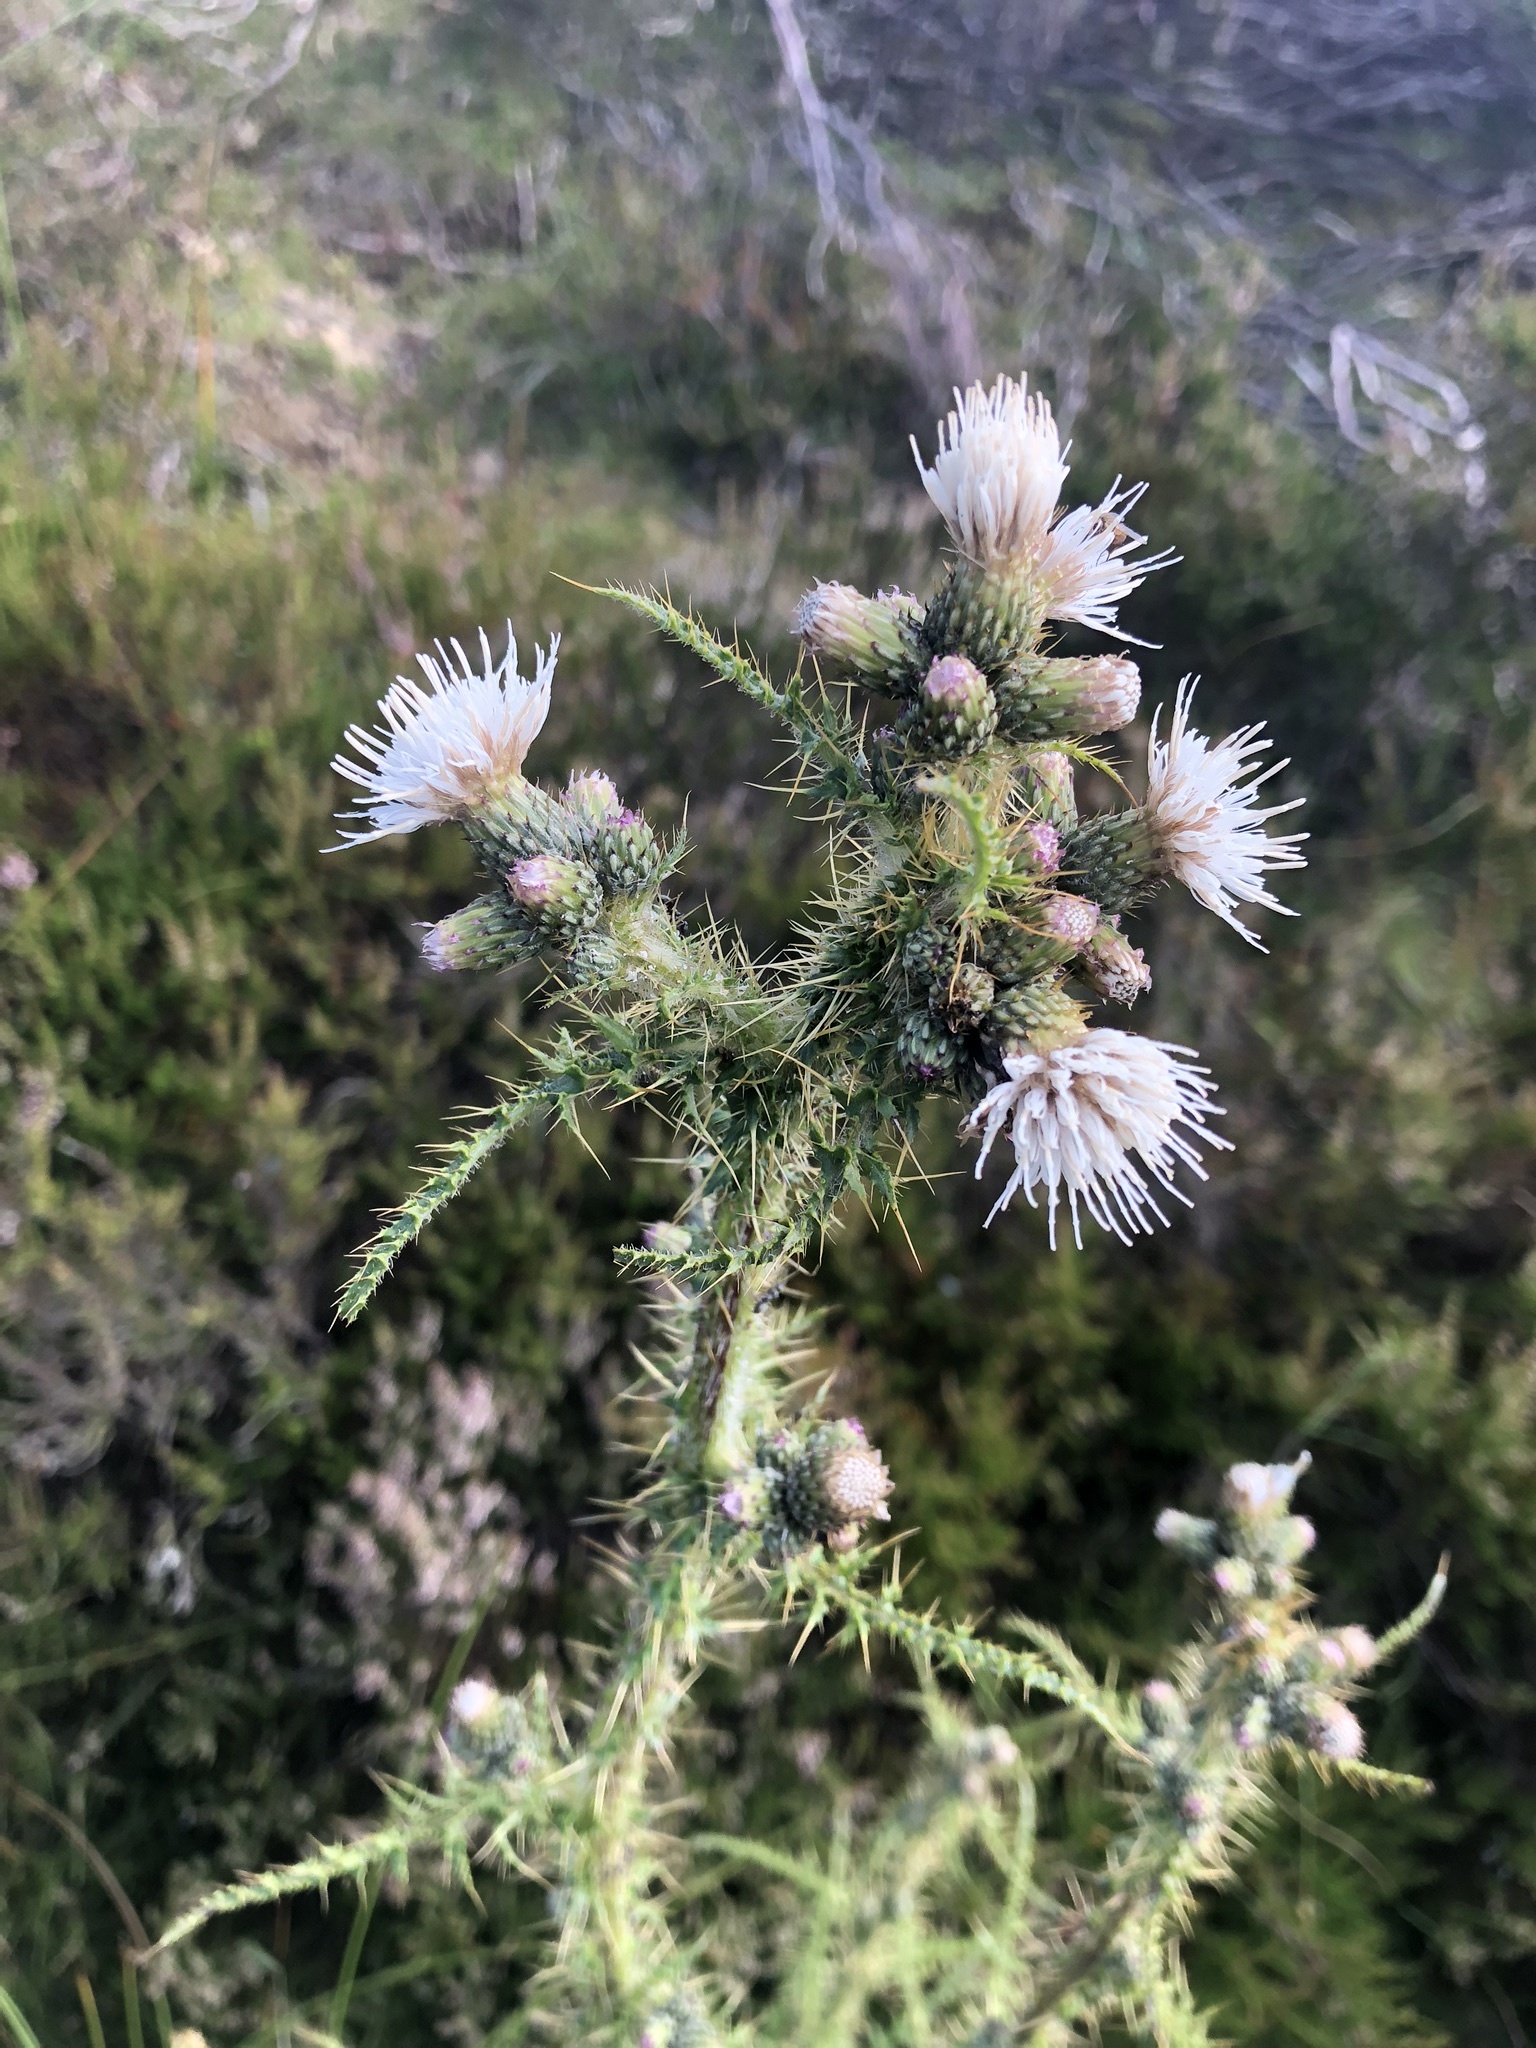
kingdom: Plantae
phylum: Tracheophyta
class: Magnoliopsida
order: Asterales
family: Asteraceae
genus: Cirsium
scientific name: Cirsium palustre
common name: Marsh thistle
